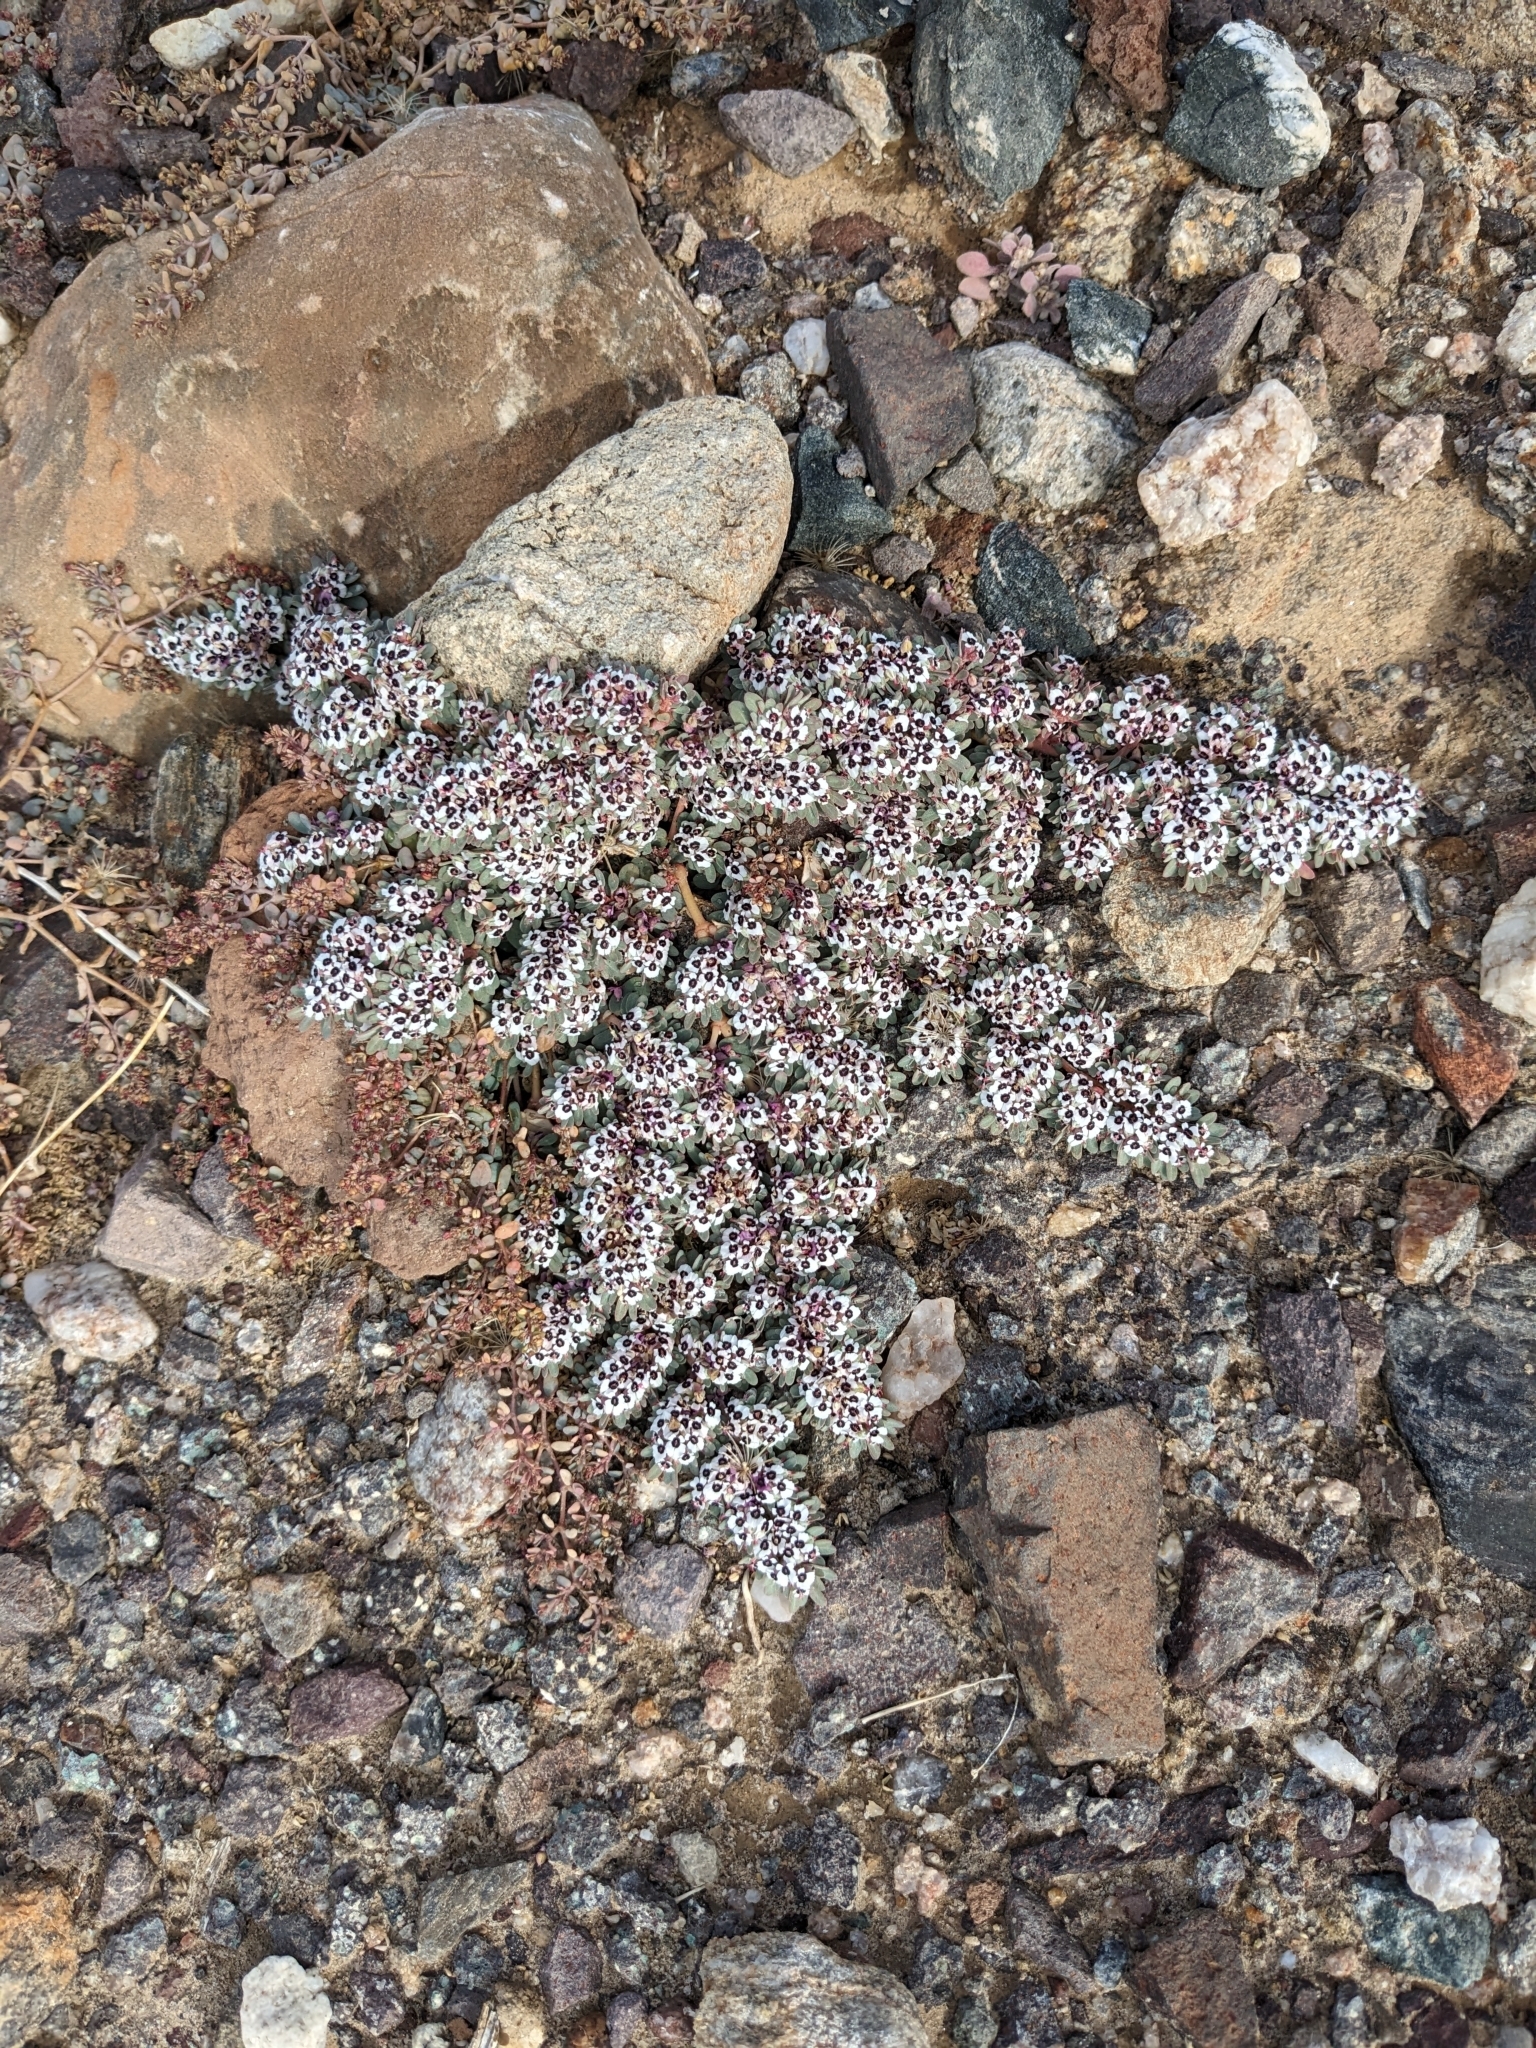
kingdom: Plantae
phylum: Tracheophyta
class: Magnoliopsida
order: Malpighiales
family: Euphorbiaceae
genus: Euphorbia
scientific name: Euphorbia pediculifera
